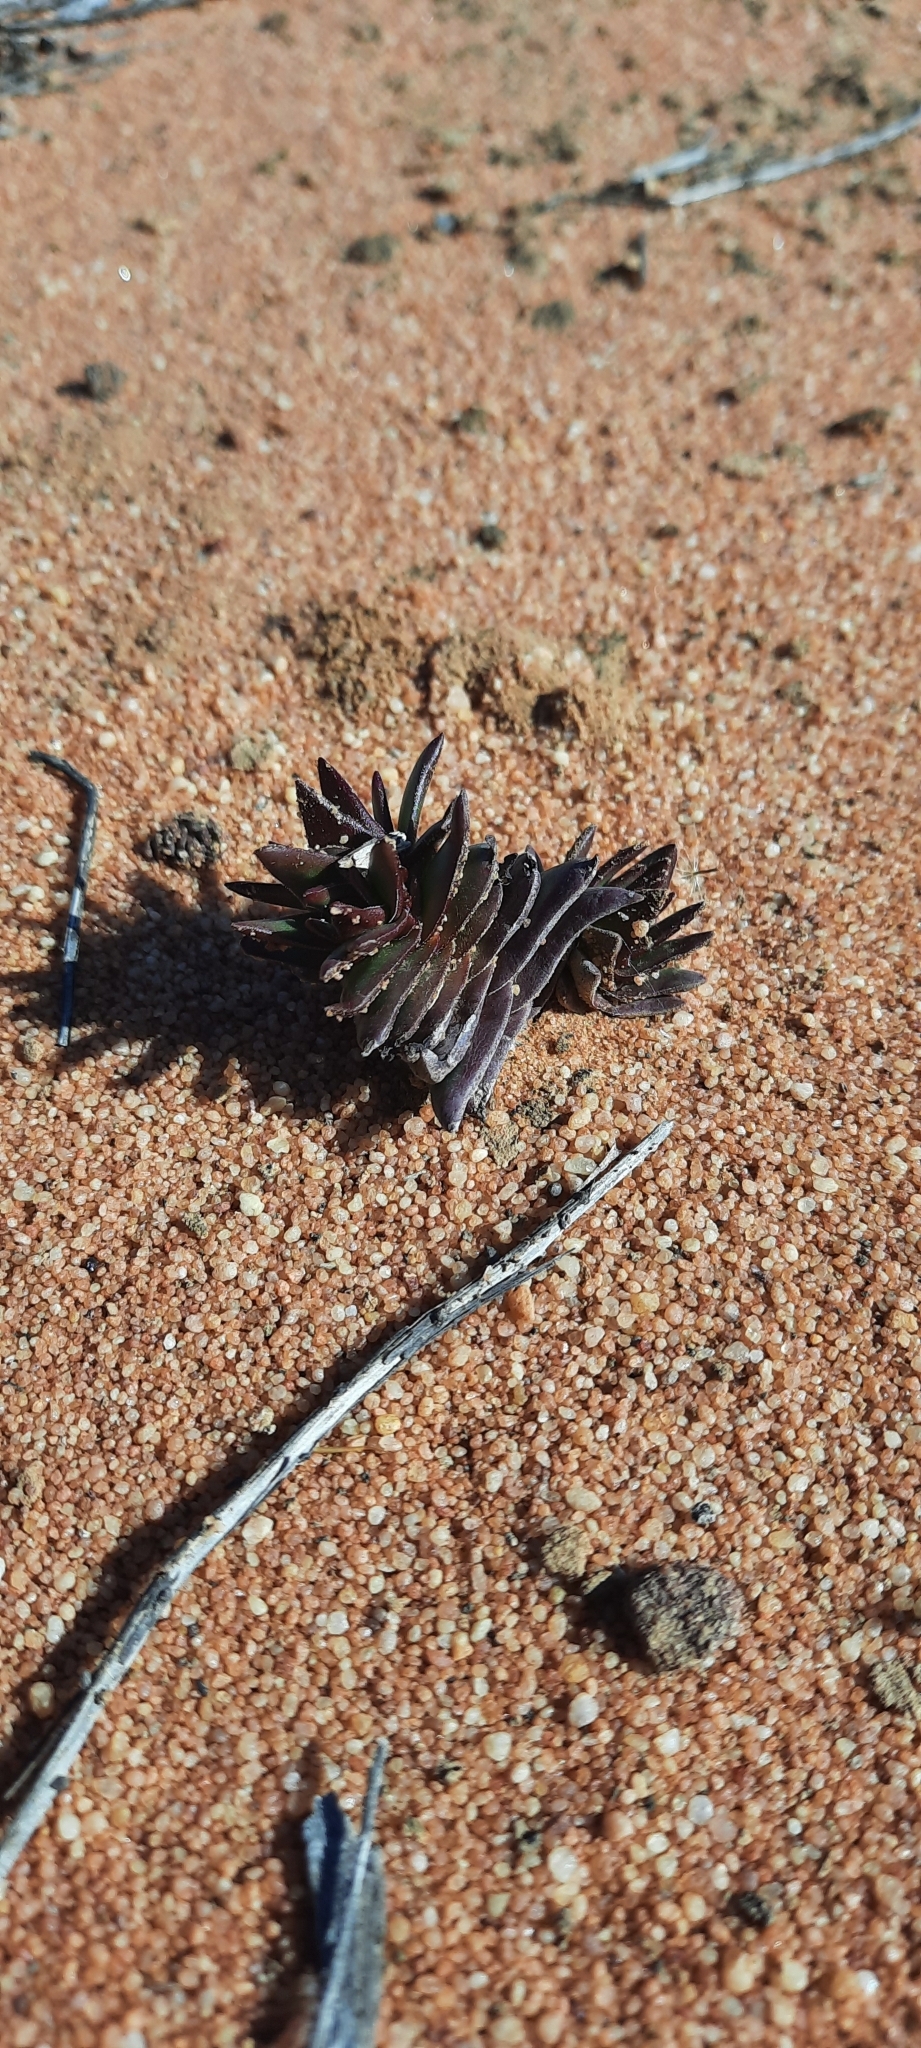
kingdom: Plantae
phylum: Tracheophyta
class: Magnoliopsida
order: Saxifragales
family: Crassulaceae
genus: Crassula
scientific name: Crassula alpestris
